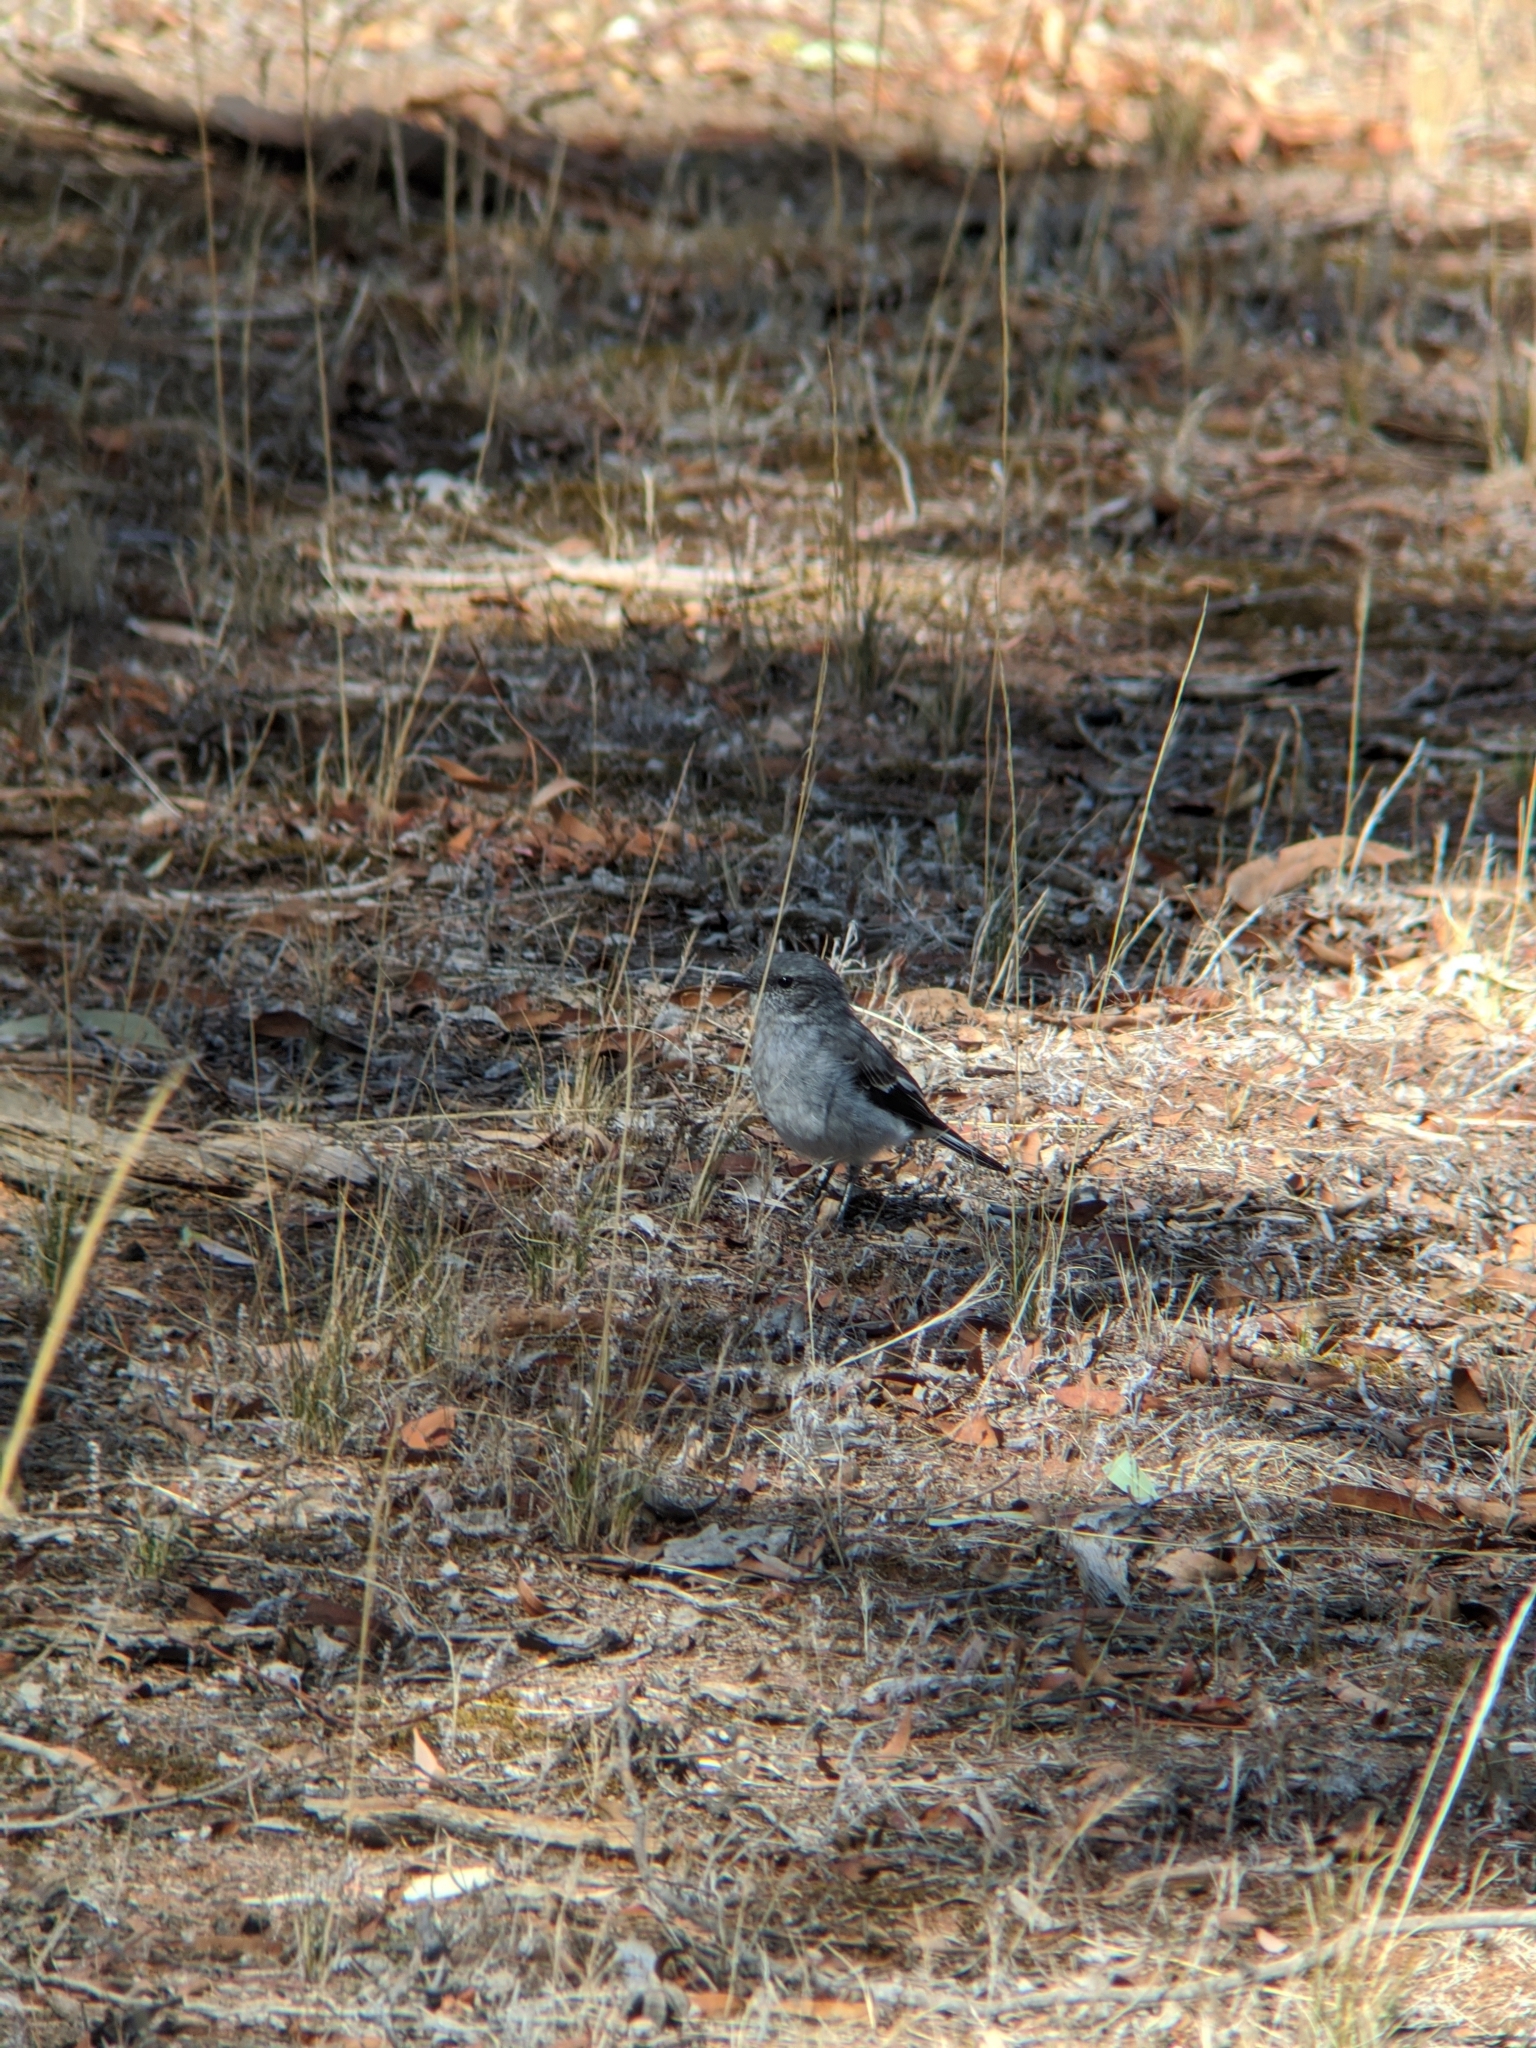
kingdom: Animalia
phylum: Chordata
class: Aves
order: Passeriformes
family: Petroicidae
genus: Melanodryas
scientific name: Melanodryas cucullata
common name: Hooded robin
